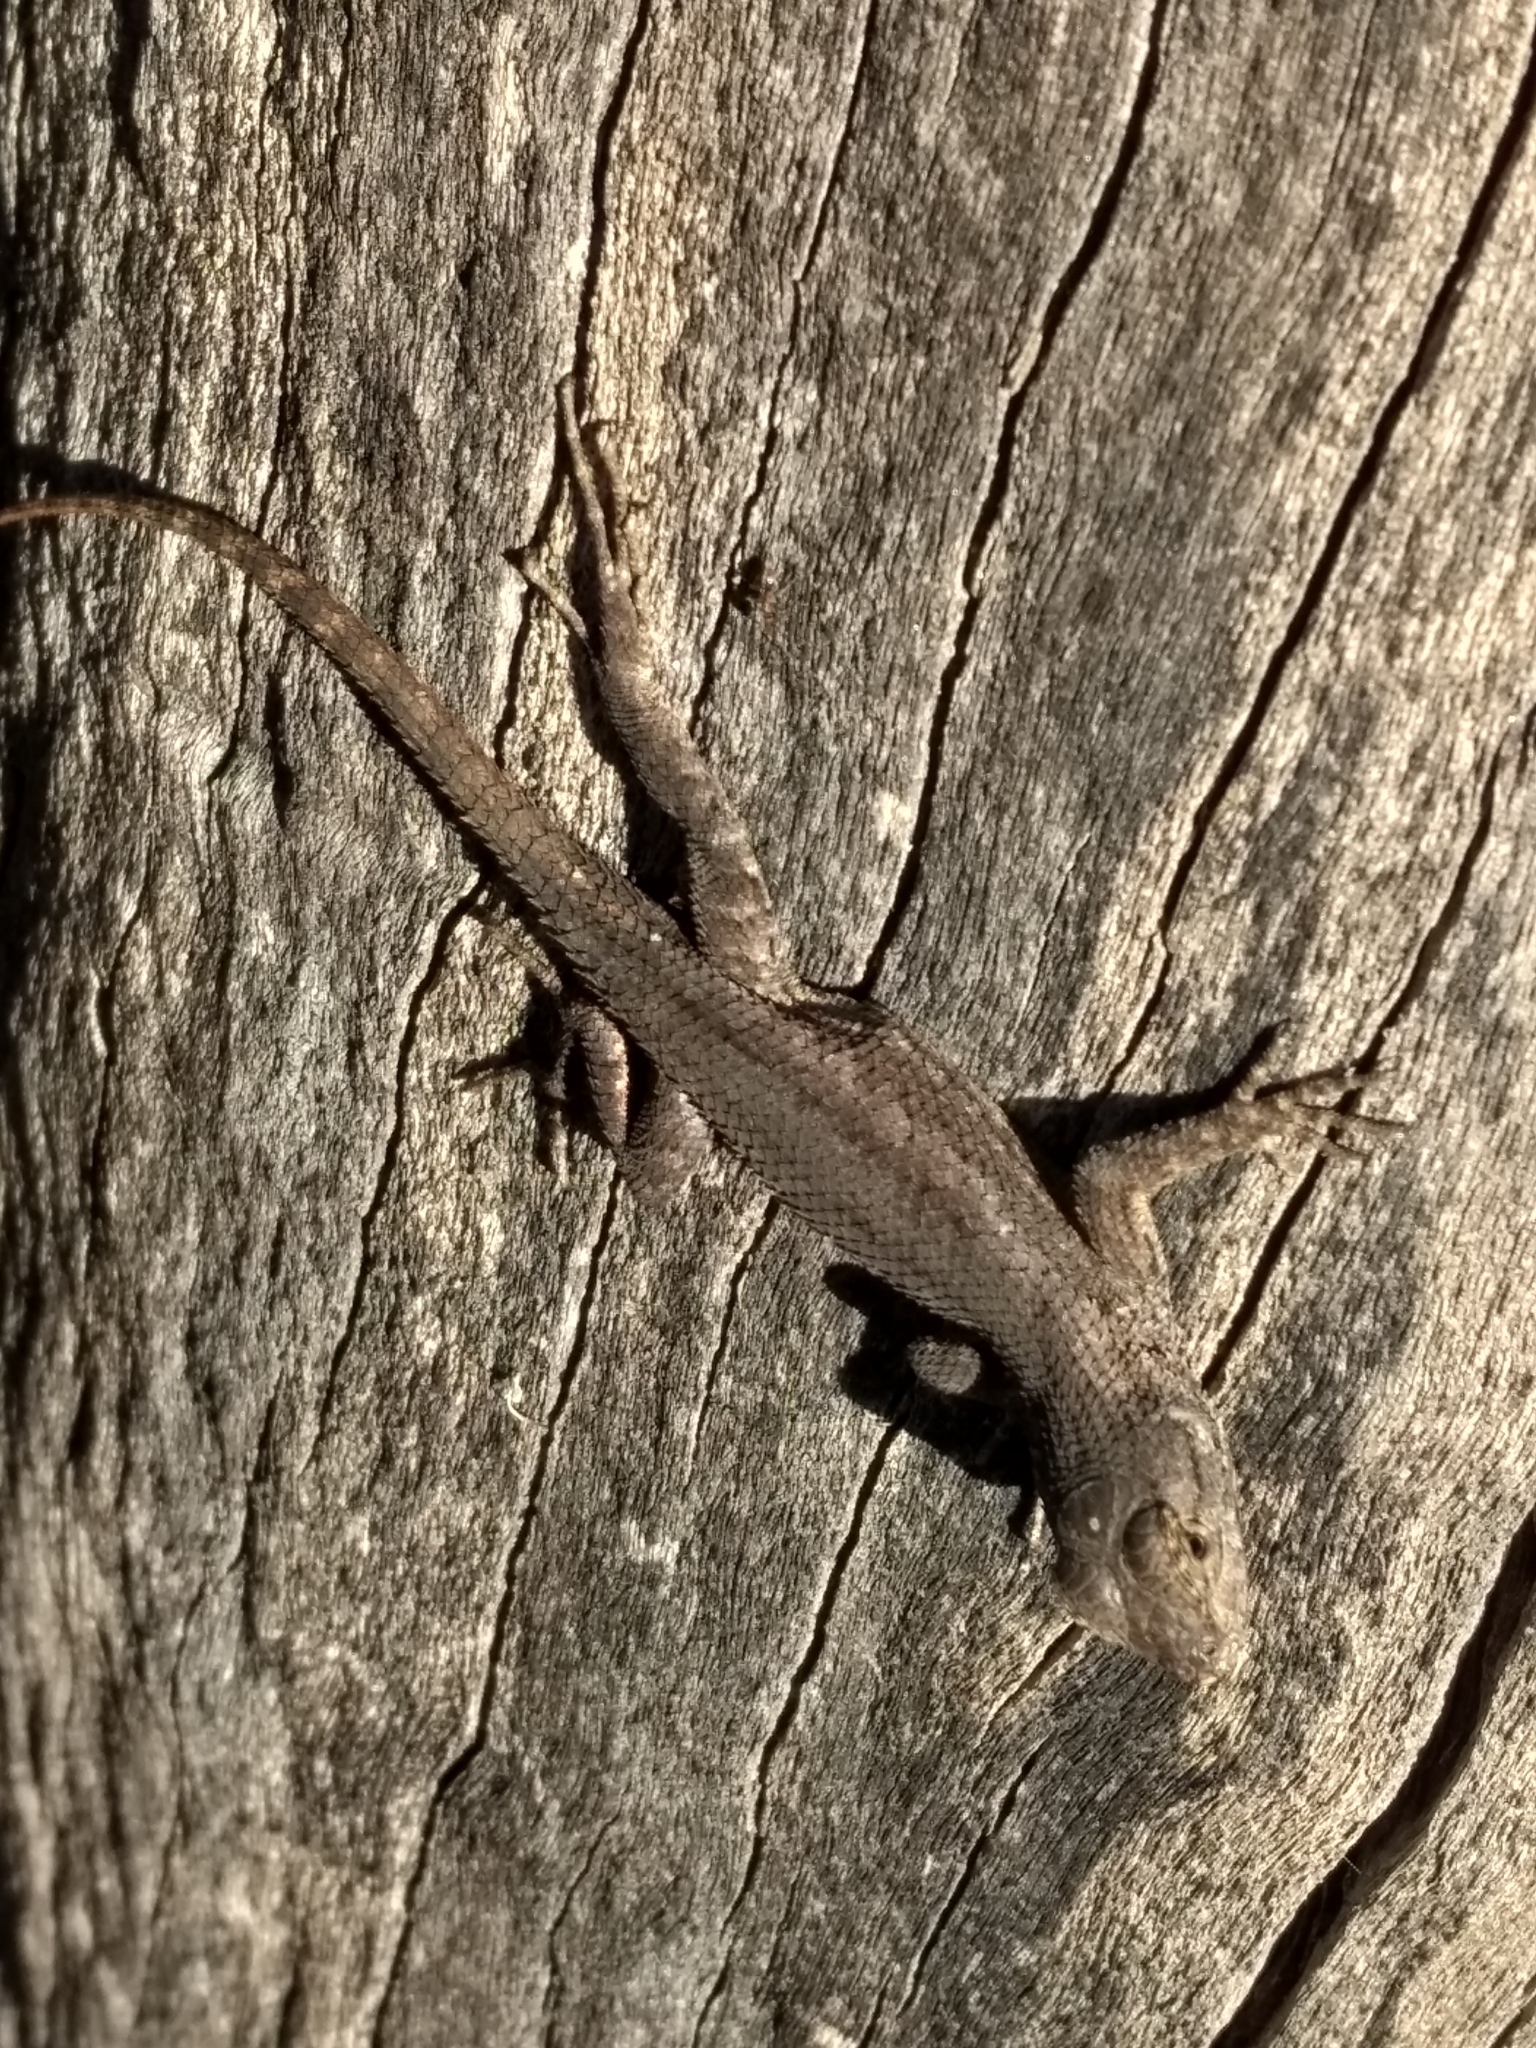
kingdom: Animalia
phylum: Chordata
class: Squamata
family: Phrynosomatidae
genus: Sceloporus
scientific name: Sceloporus occidentalis
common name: Western fence lizard
